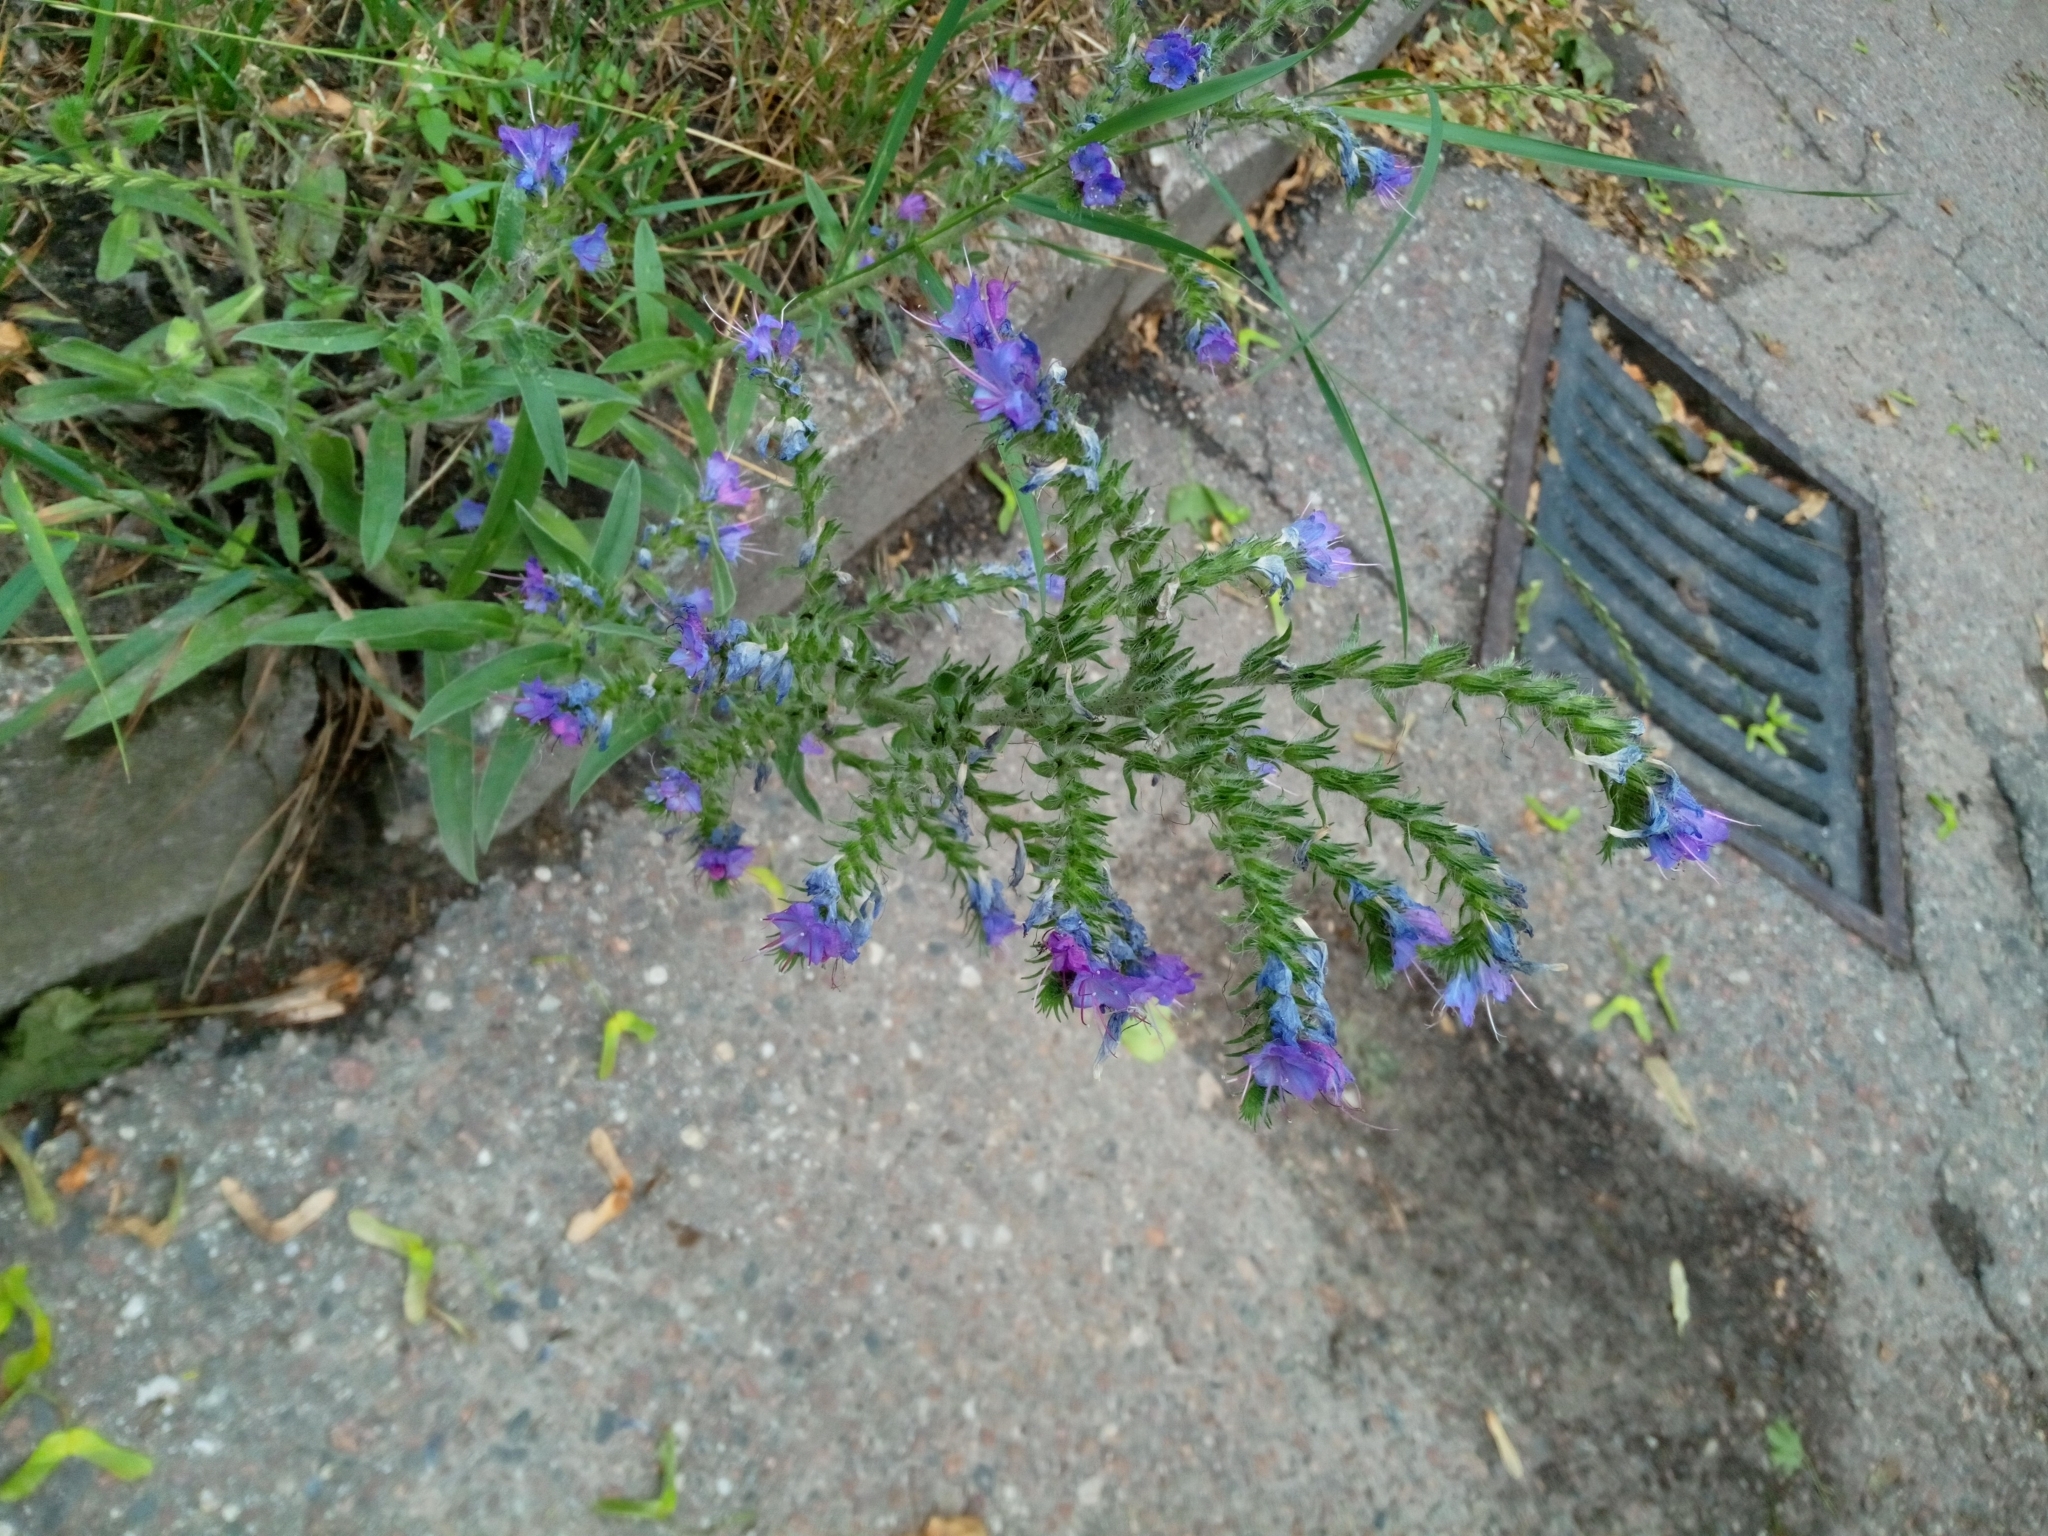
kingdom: Plantae
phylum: Tracheophyta
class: Magnoliopsida
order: Boraginales
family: Boraginaceae
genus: Echium
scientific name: Echium vulgare
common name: Common viper's bugloss
